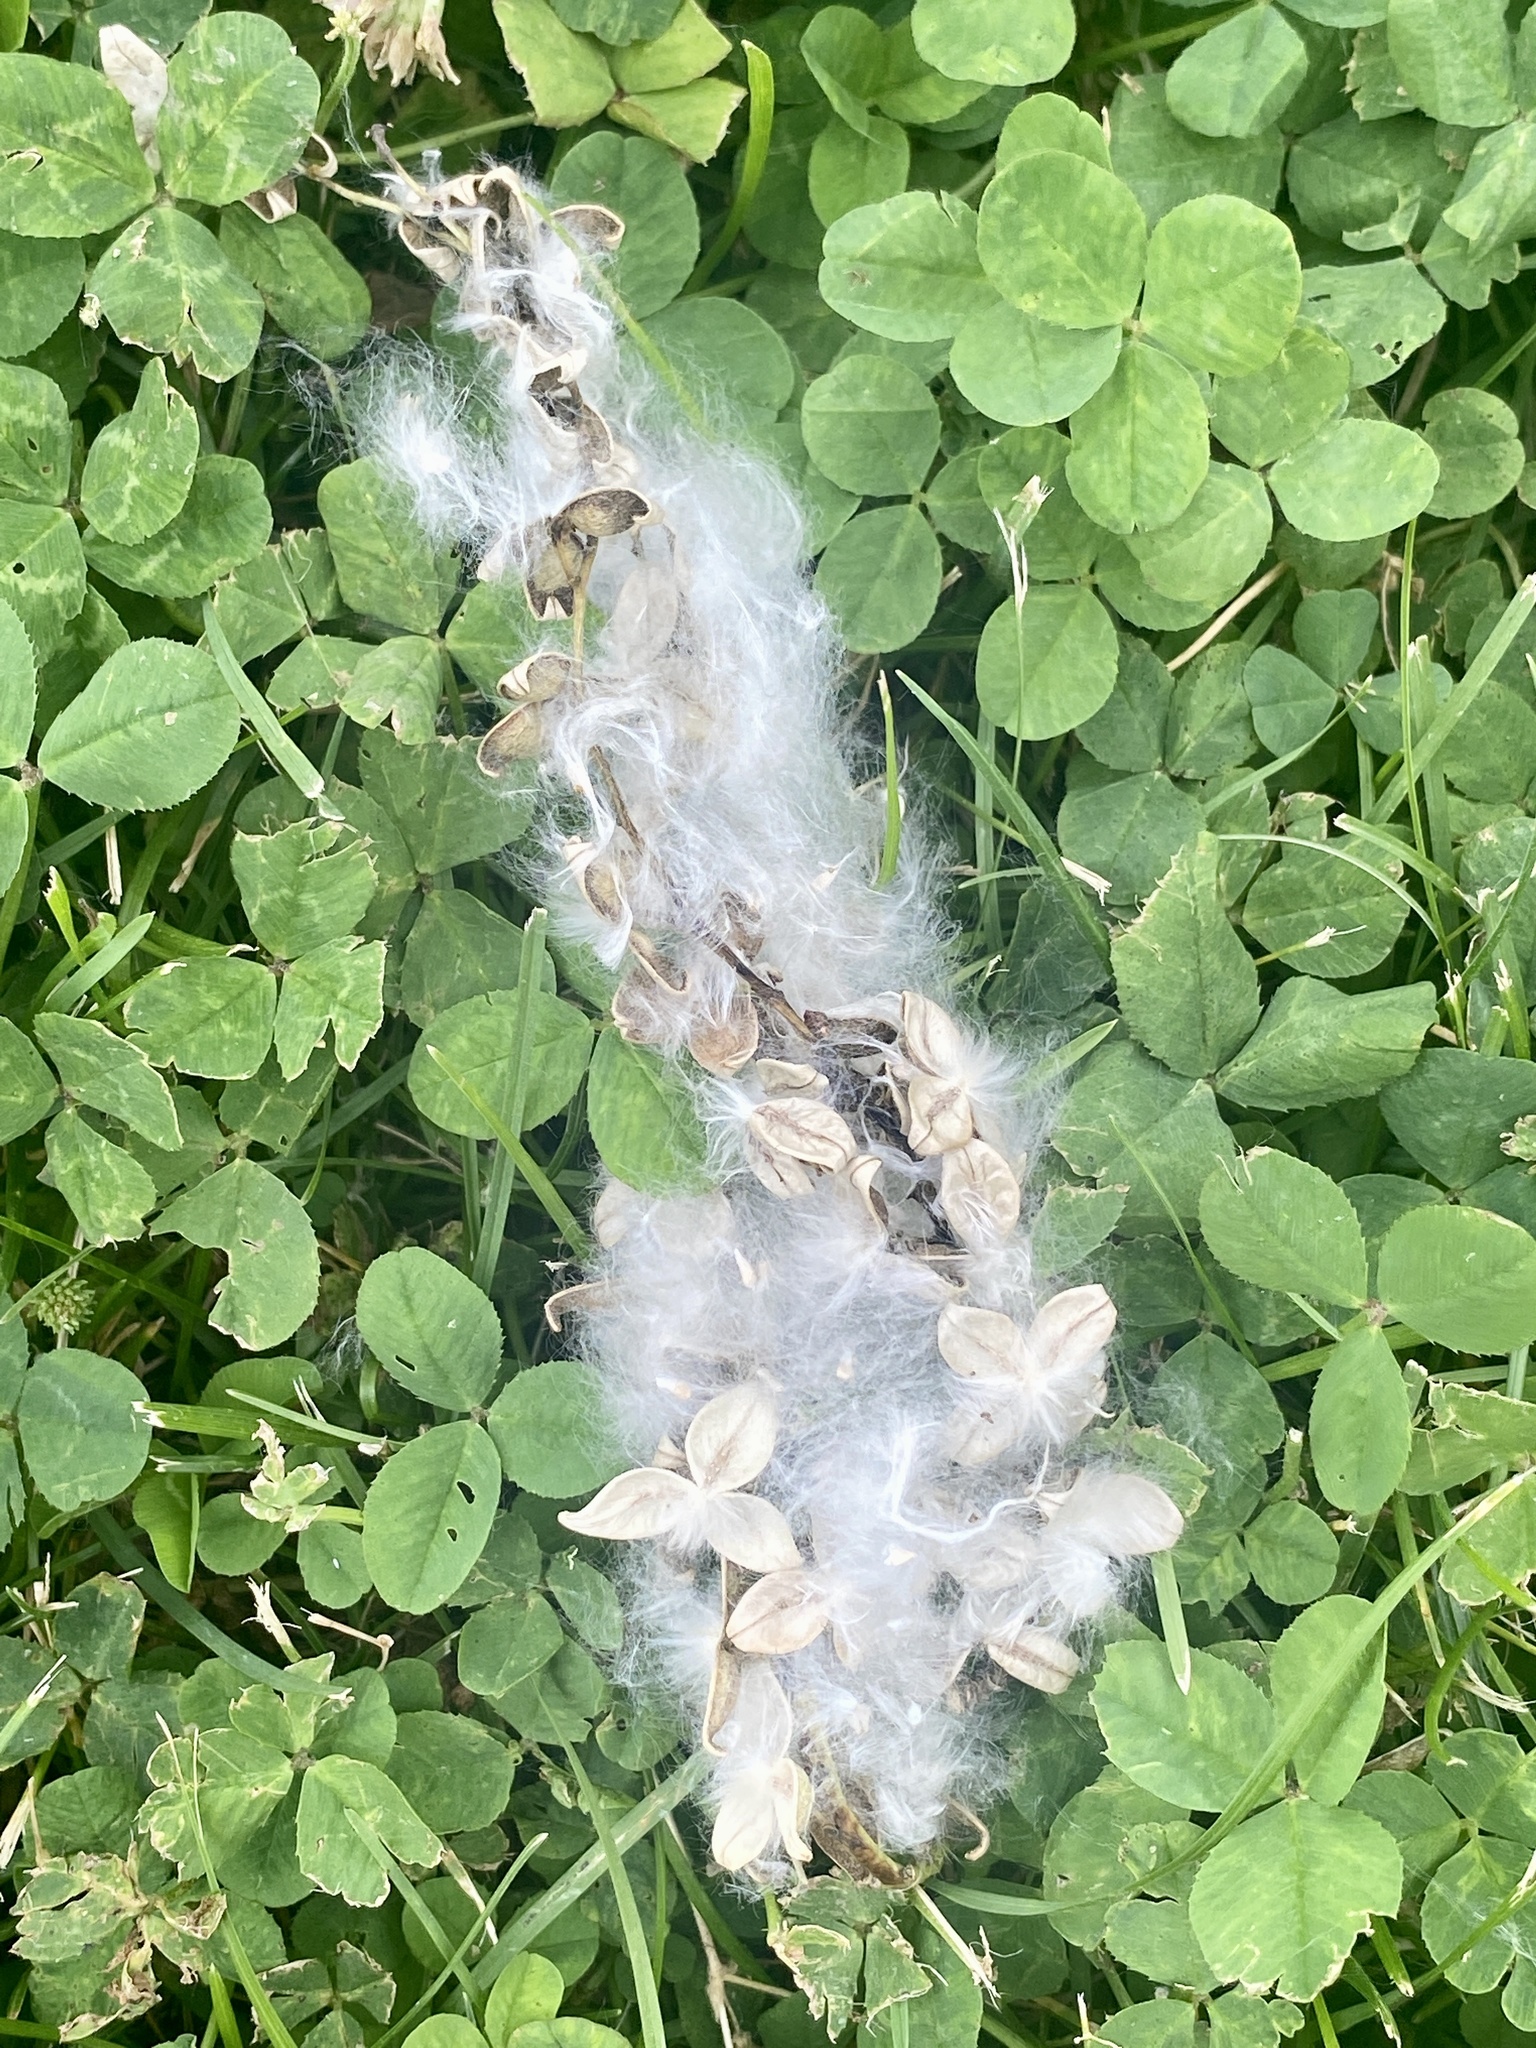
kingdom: Plantae
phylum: Tracheophyta
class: Magnoliopsida
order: Malpighiales
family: Salicaceae
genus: Populus
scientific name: Populus deltoides
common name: Eastern cottonwood
